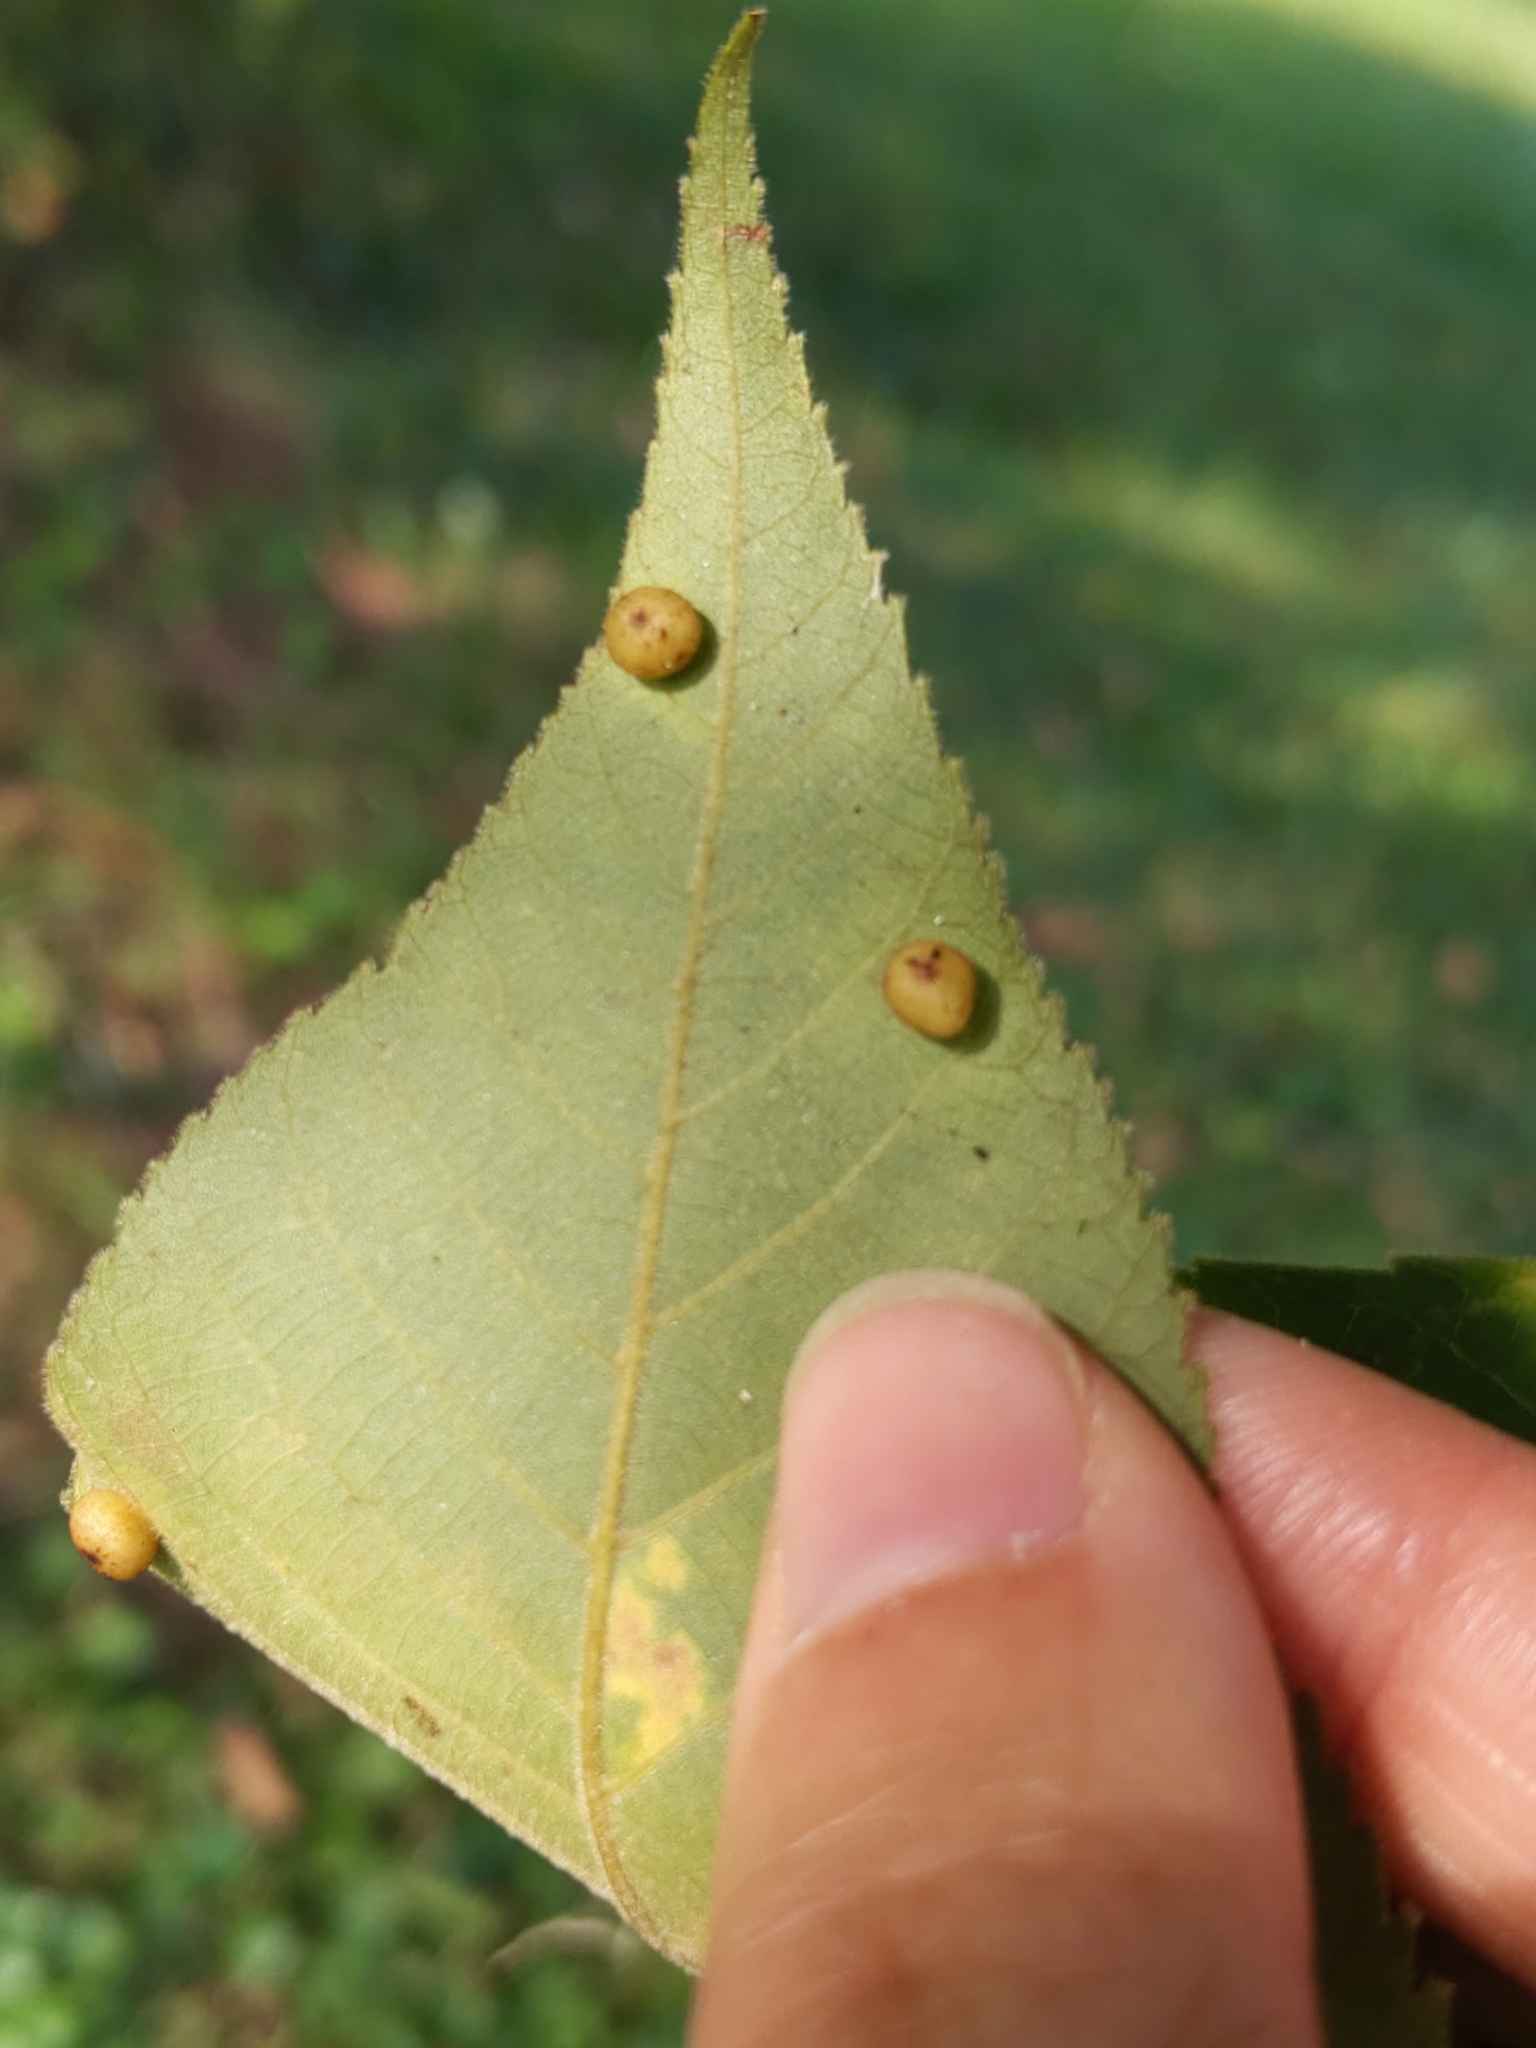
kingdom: Animalia
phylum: Arthropoda
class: Insecta
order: Diptera
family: Cecidomyiidae
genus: Caryomyia
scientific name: Caryomyia caryae
